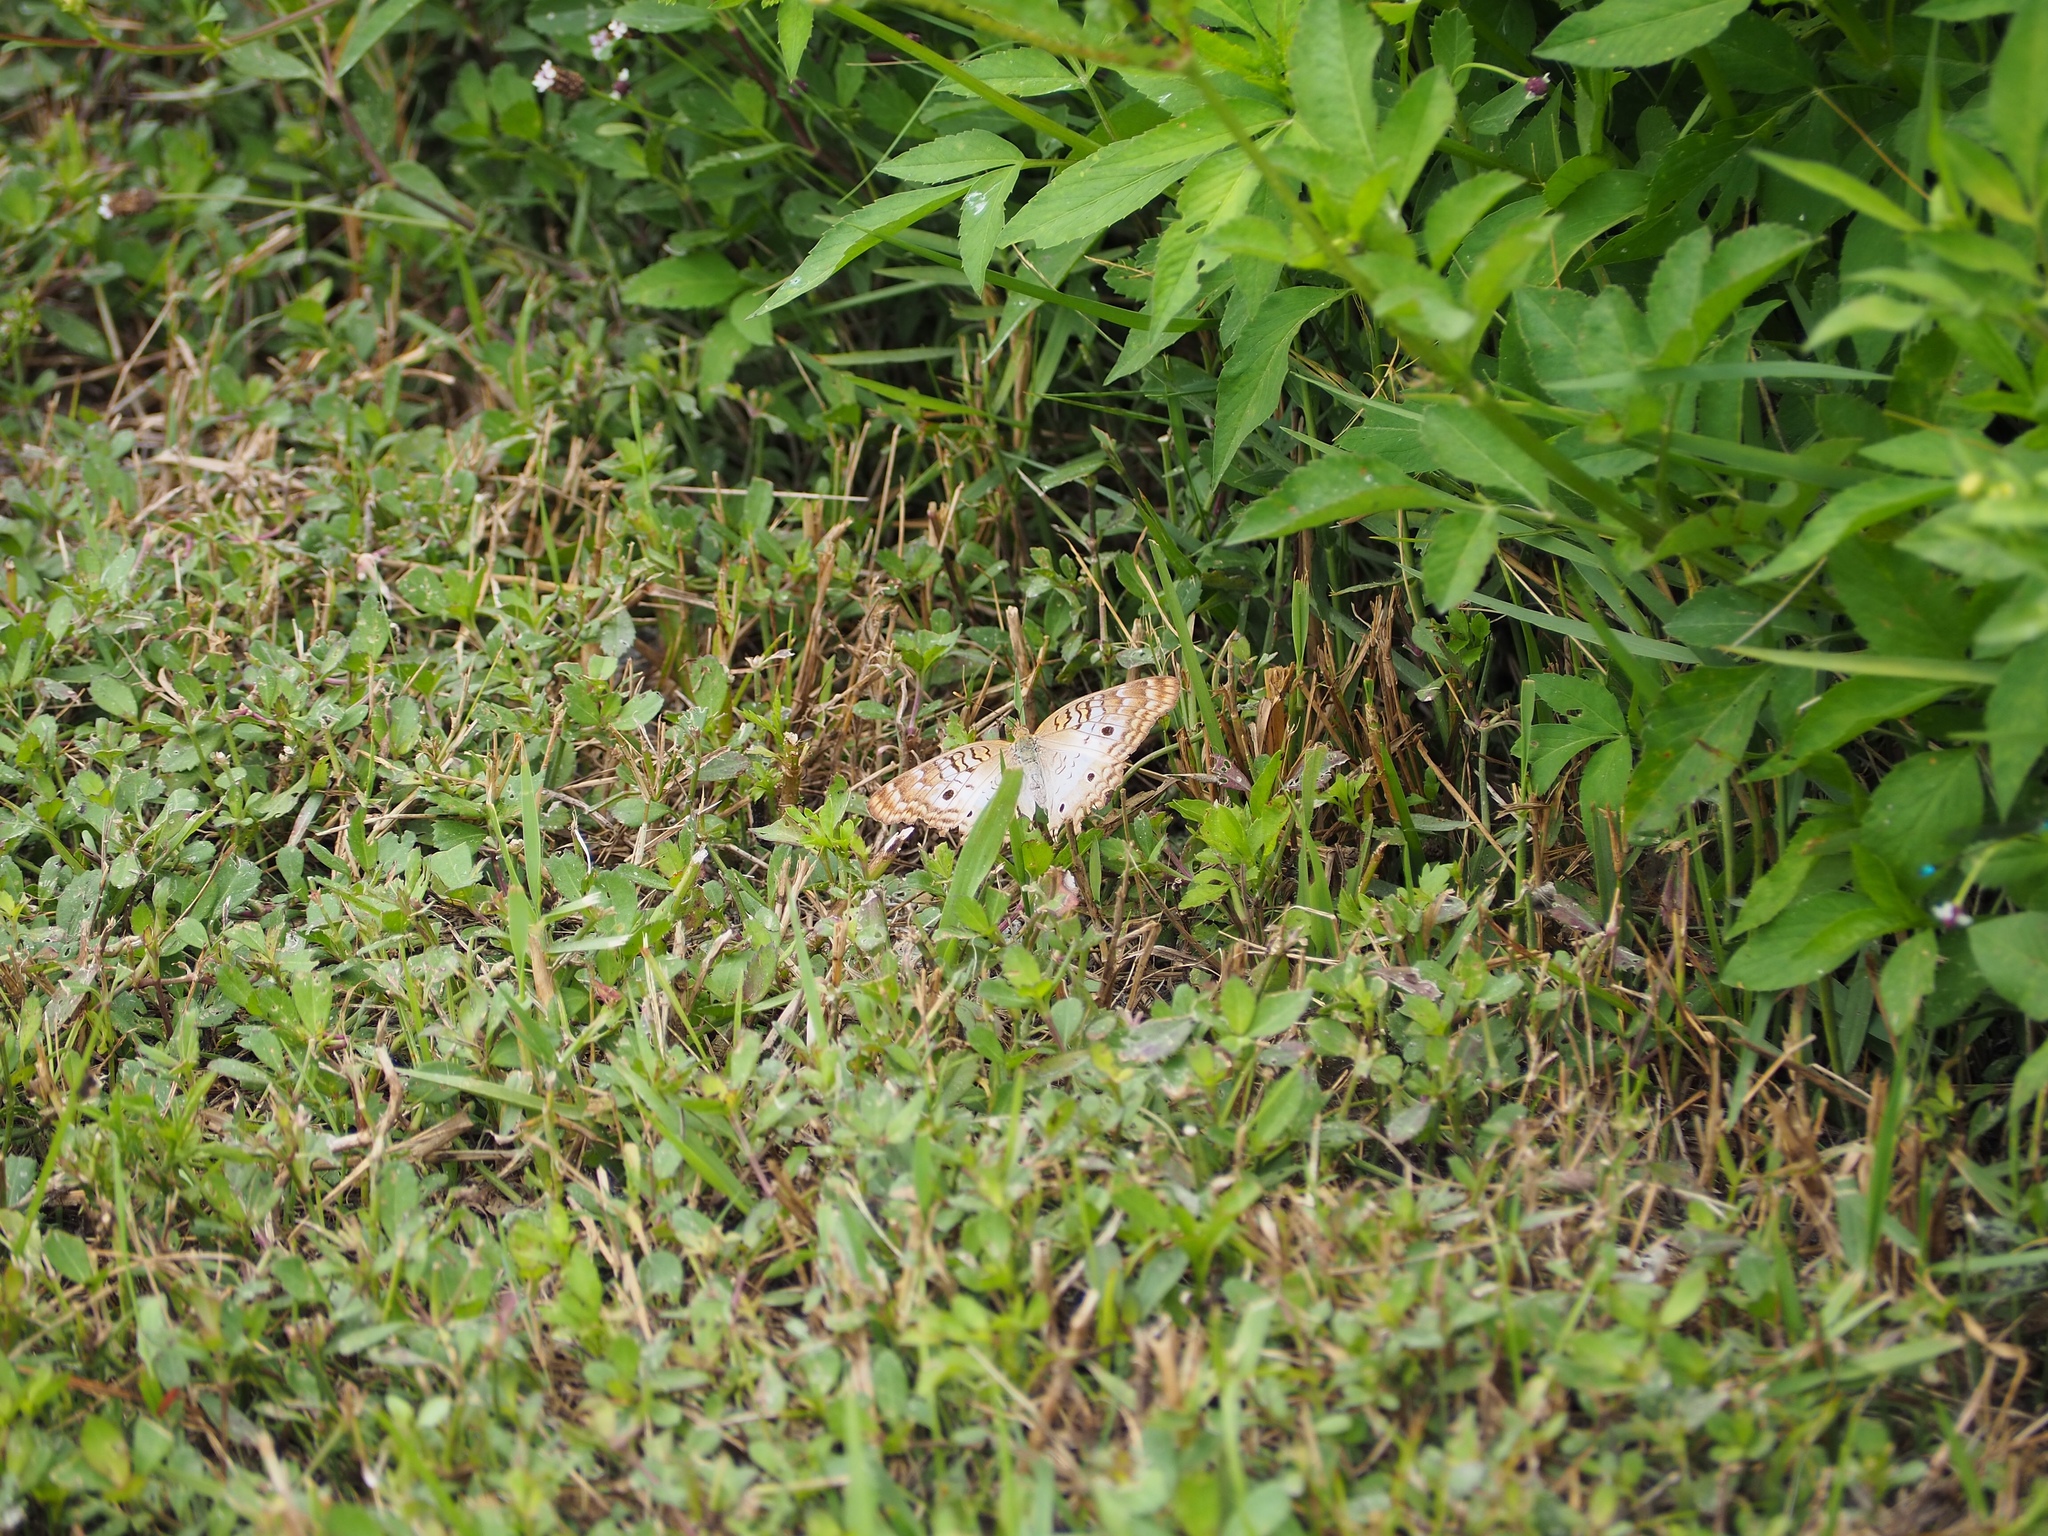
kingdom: Animalia
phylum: Arthropoda
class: Insecta
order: Lepidoptera
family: Nymphalidae
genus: Anartia
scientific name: Anartia jatrophae
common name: White peacock
